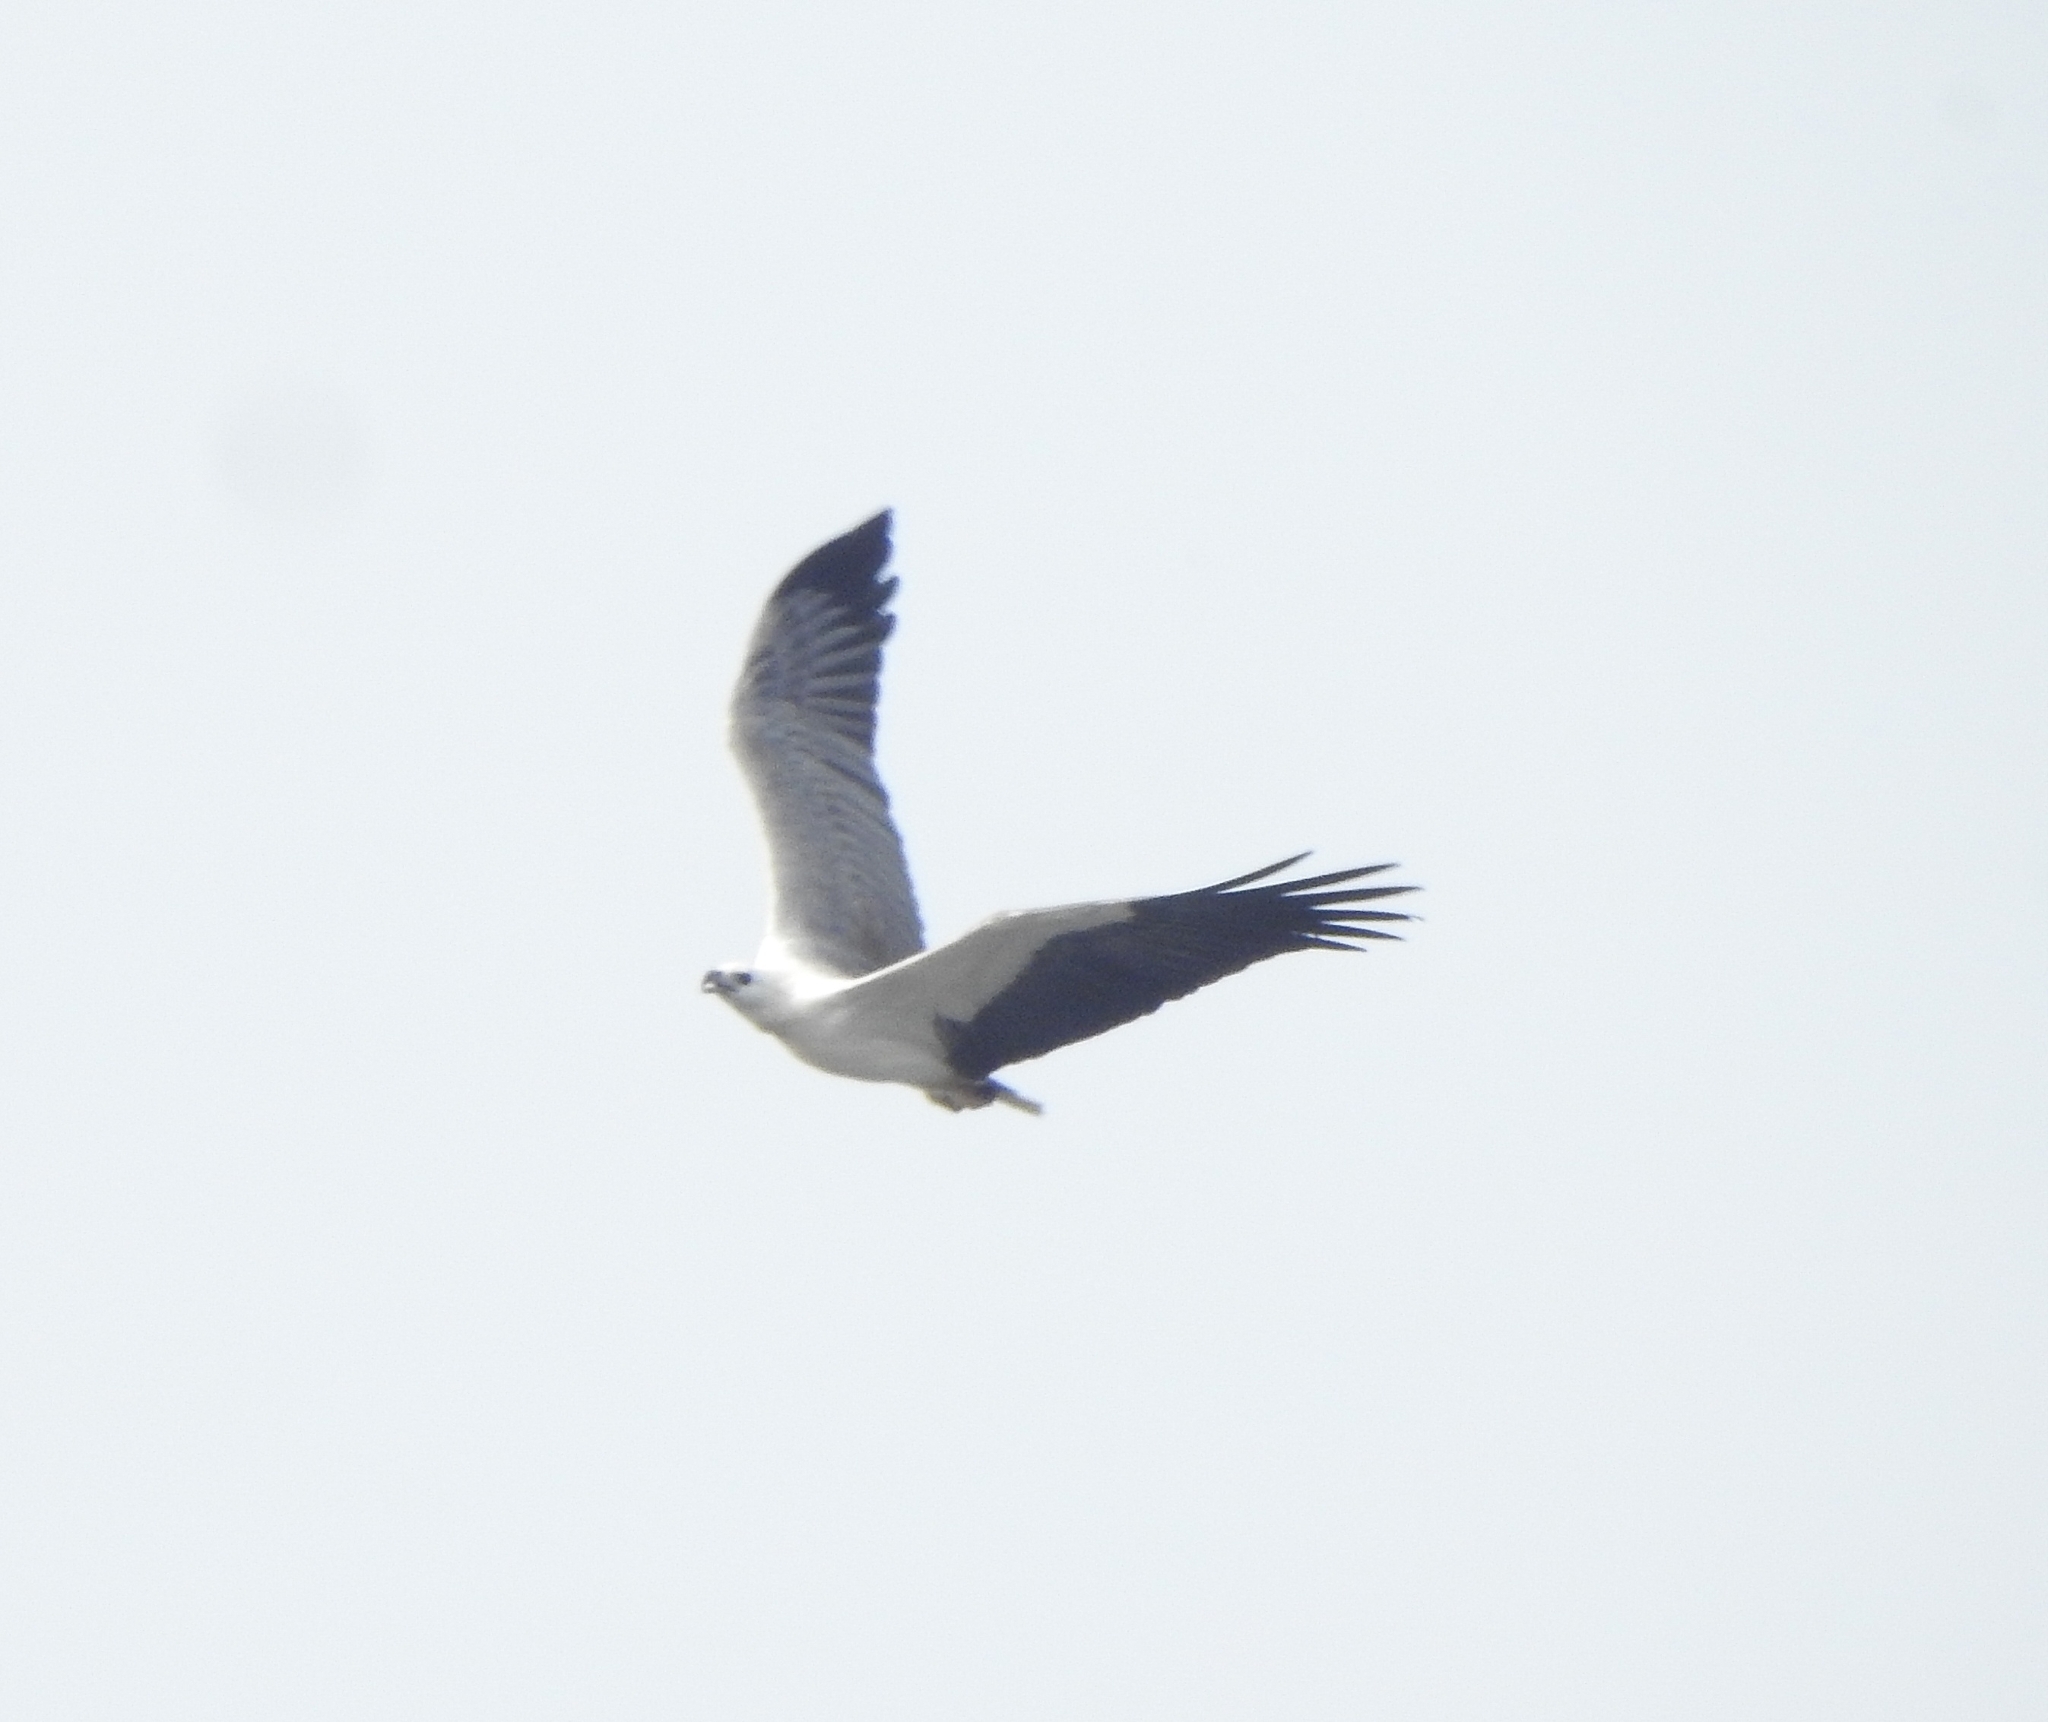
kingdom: Animalia
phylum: Chordata
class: Aves
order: Accipitriformes
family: Accipitridae
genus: Haliaeetus
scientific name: Haliaeetus leucogaster
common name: White-bellied sea eagle
